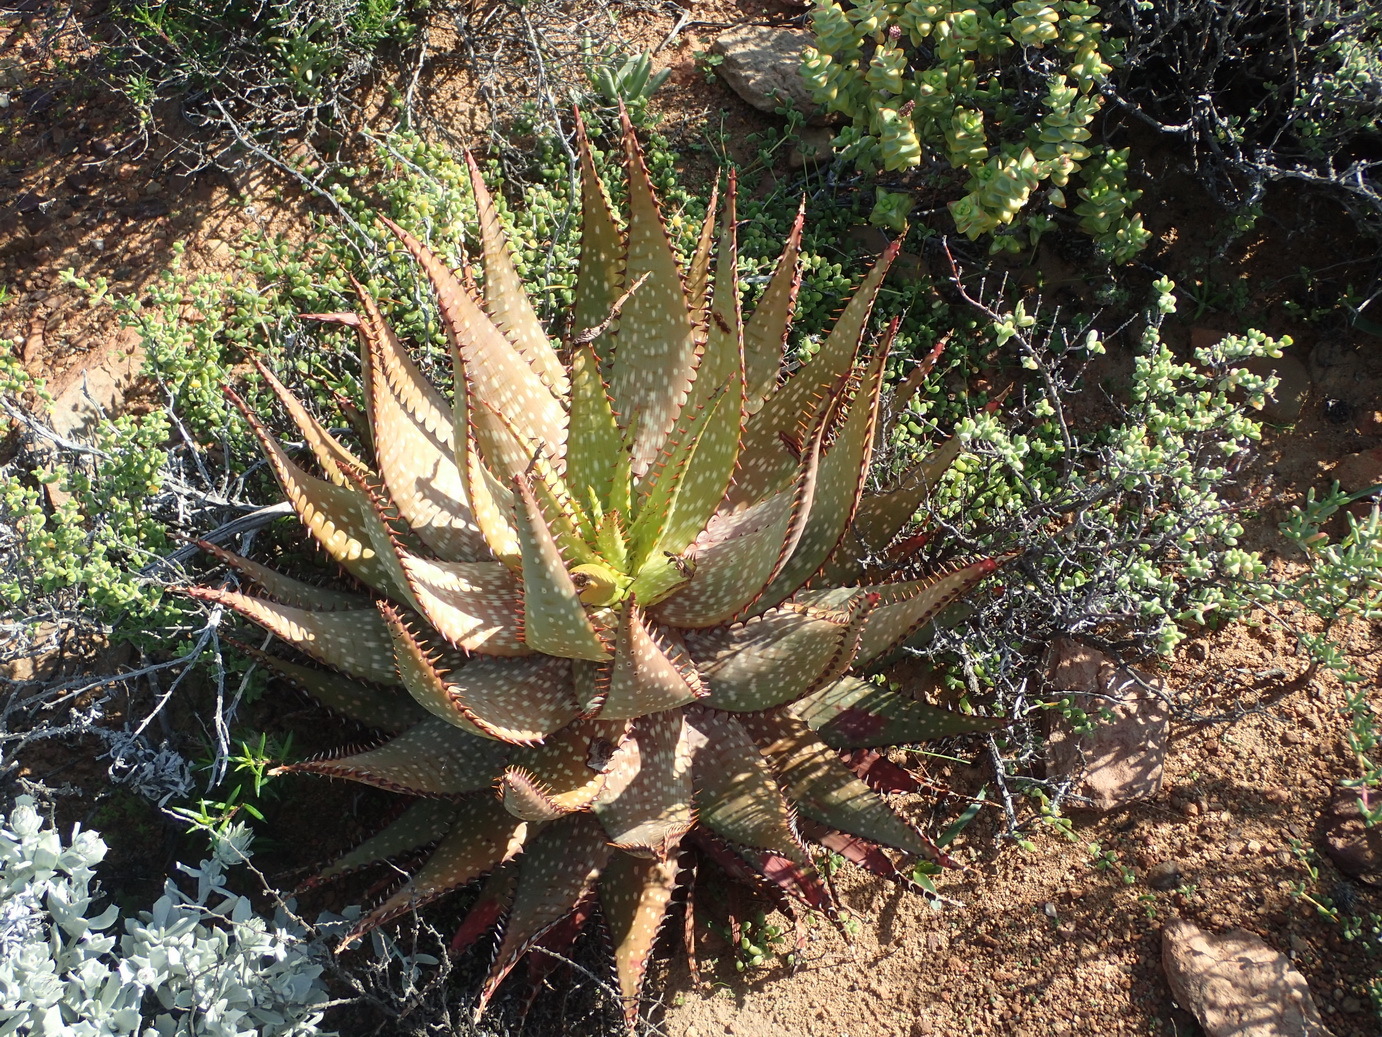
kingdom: Plantae
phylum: Tracheophyta
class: Liliopsida
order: Asparagales
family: Asphodelaceae
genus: Aloe
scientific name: Aloe microstigma
